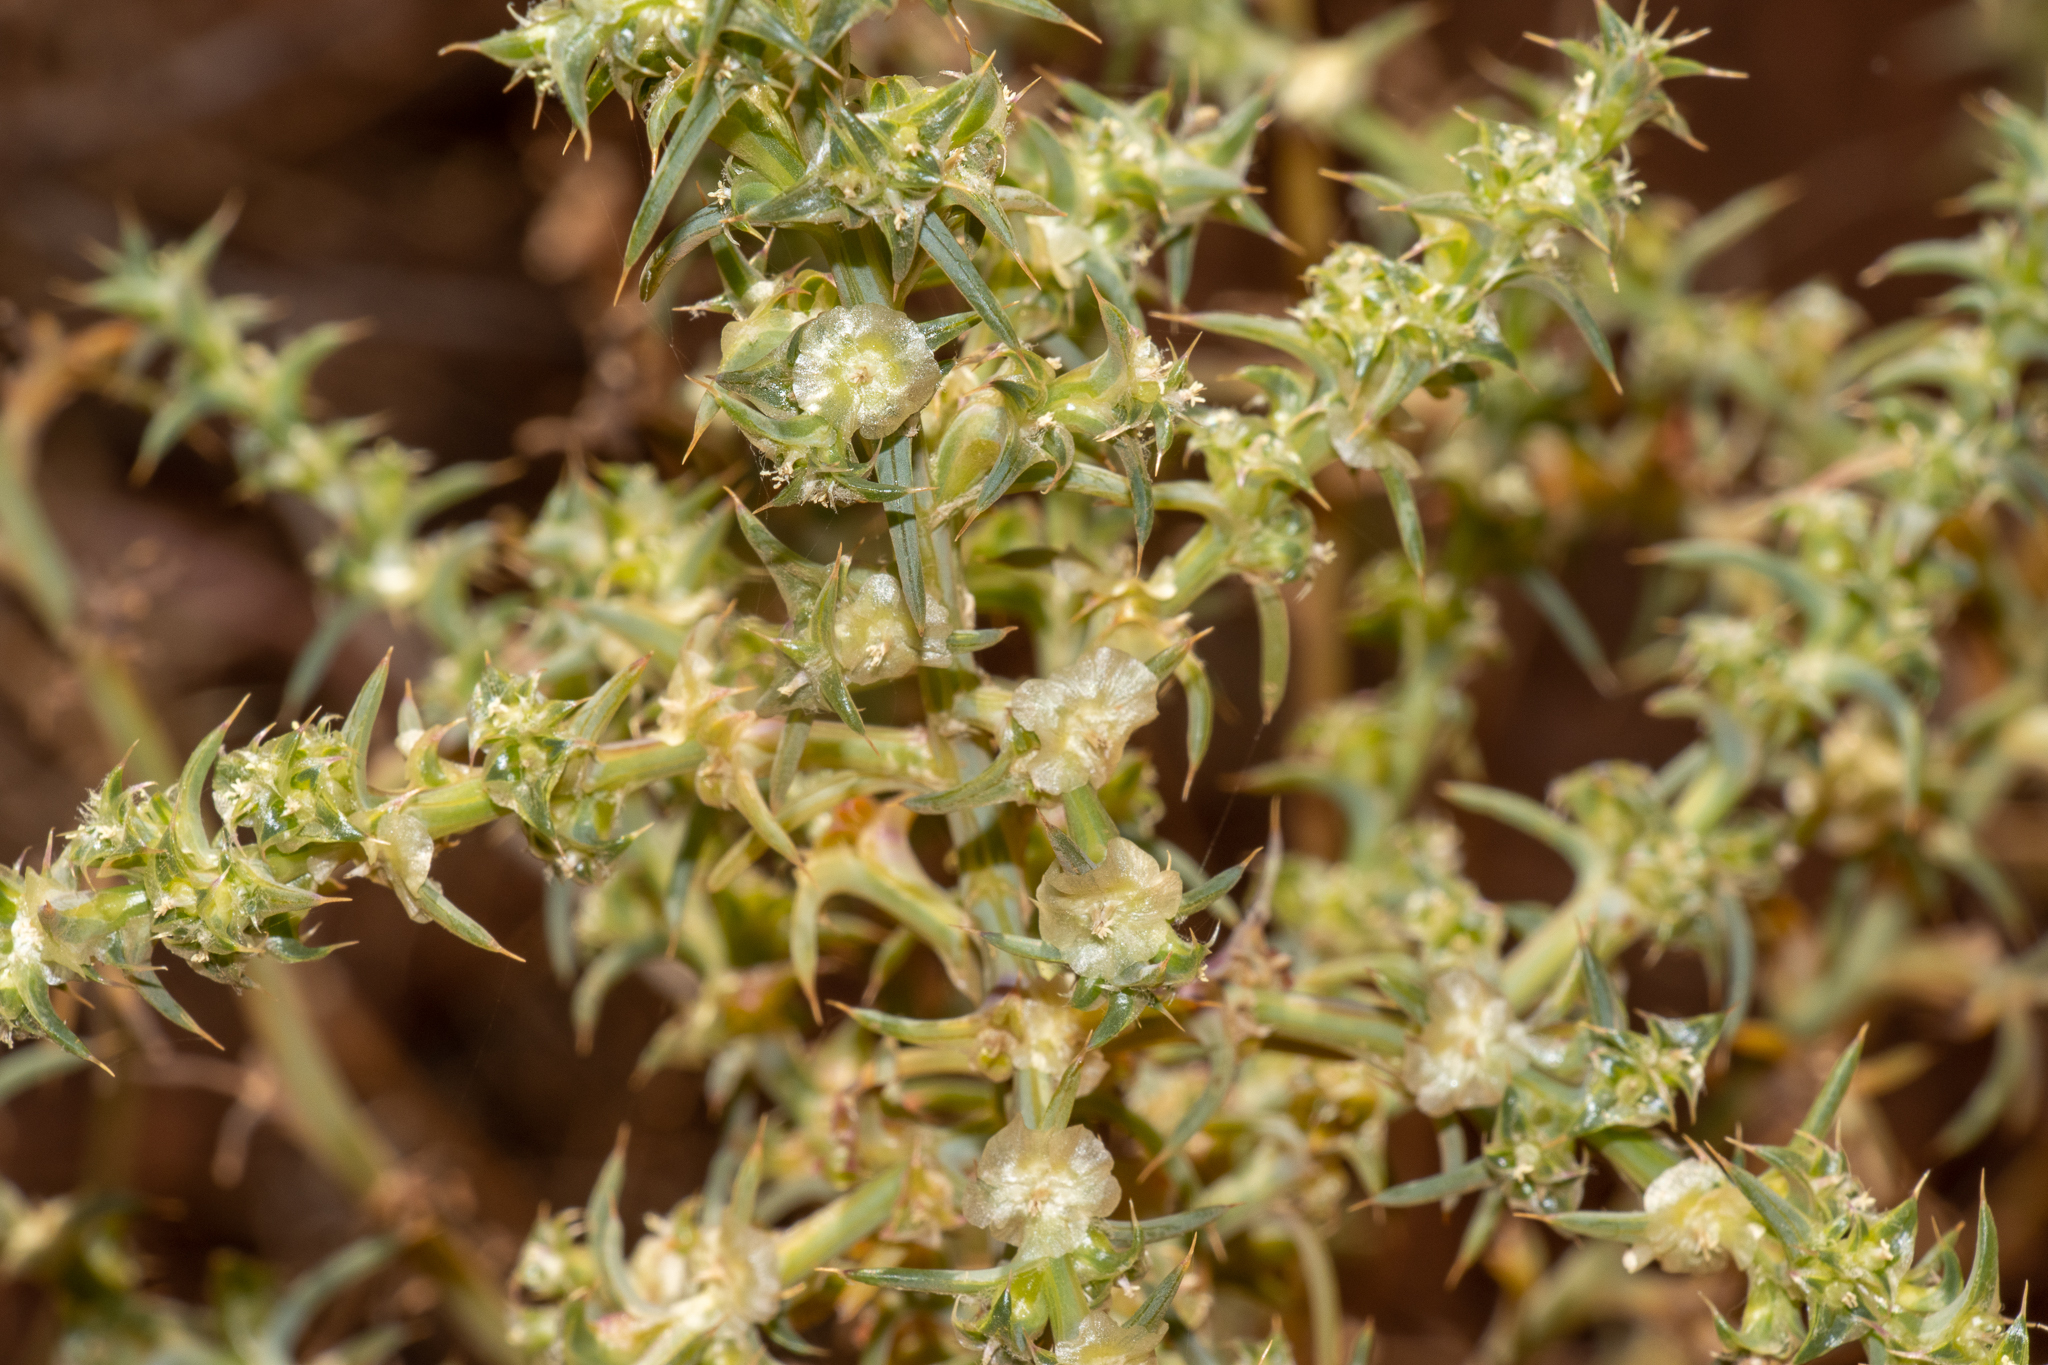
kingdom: Plantae
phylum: Tracheophyta
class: Magnoliopsida
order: Caryophyllales
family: Amaranthaceae
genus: Salsola
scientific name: Salsola australis
